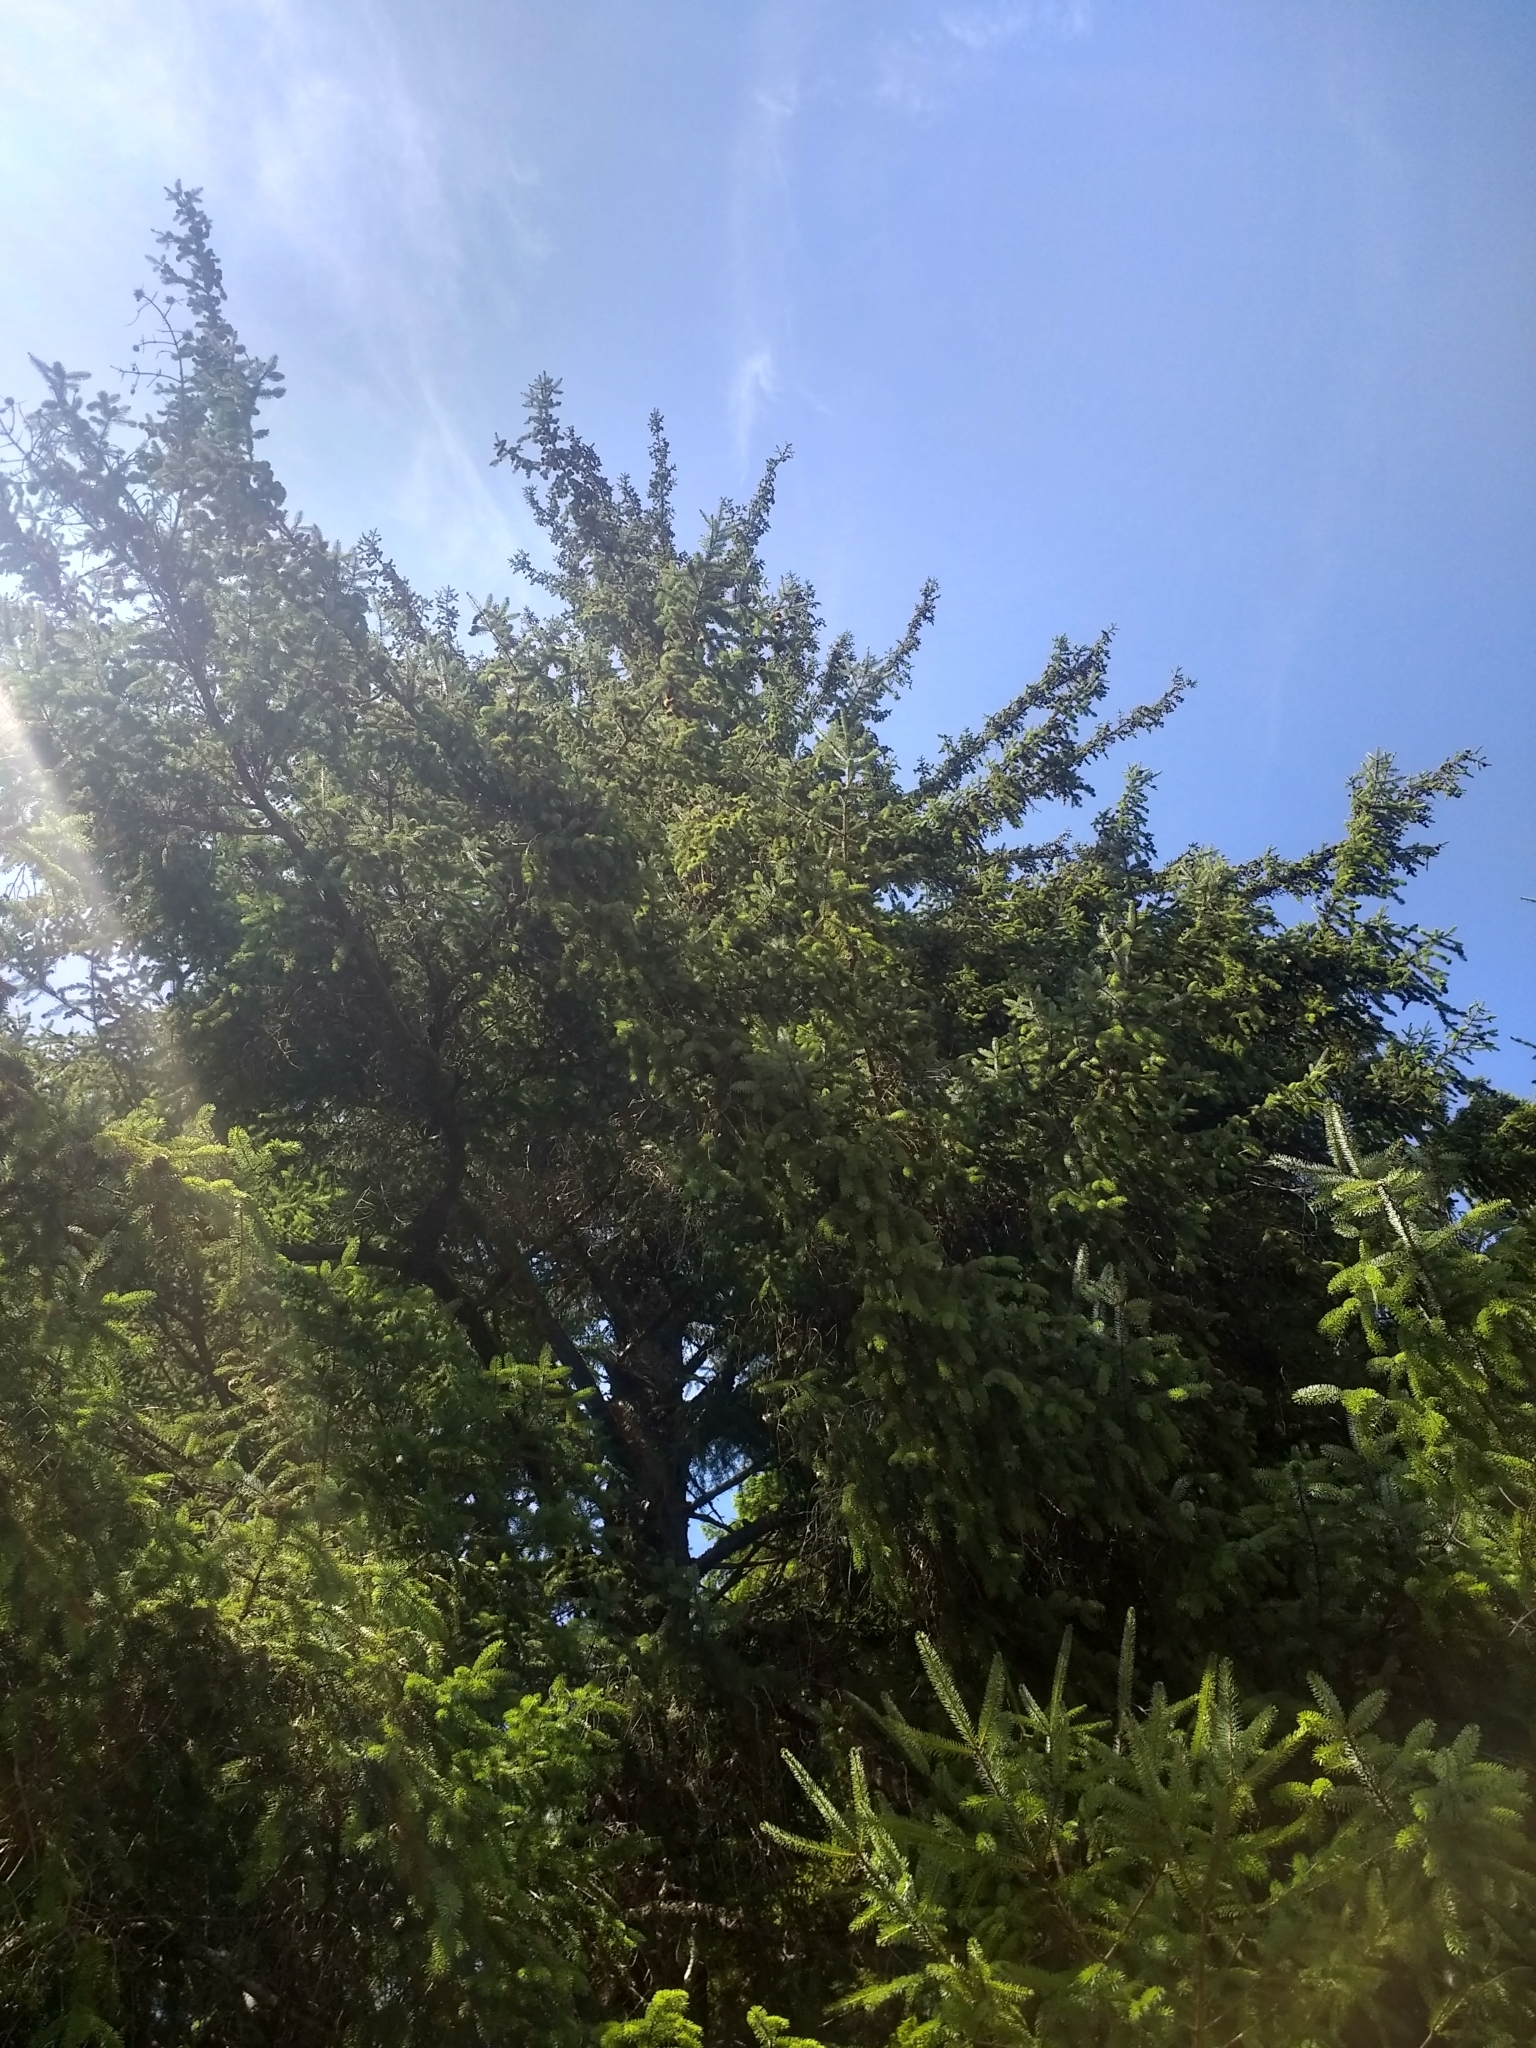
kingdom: Plantae
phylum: Tracheophyta
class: Pinopsida
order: Pinales
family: Pinaceae
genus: Picea
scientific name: Picea sitchensis
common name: Sitka spruce
